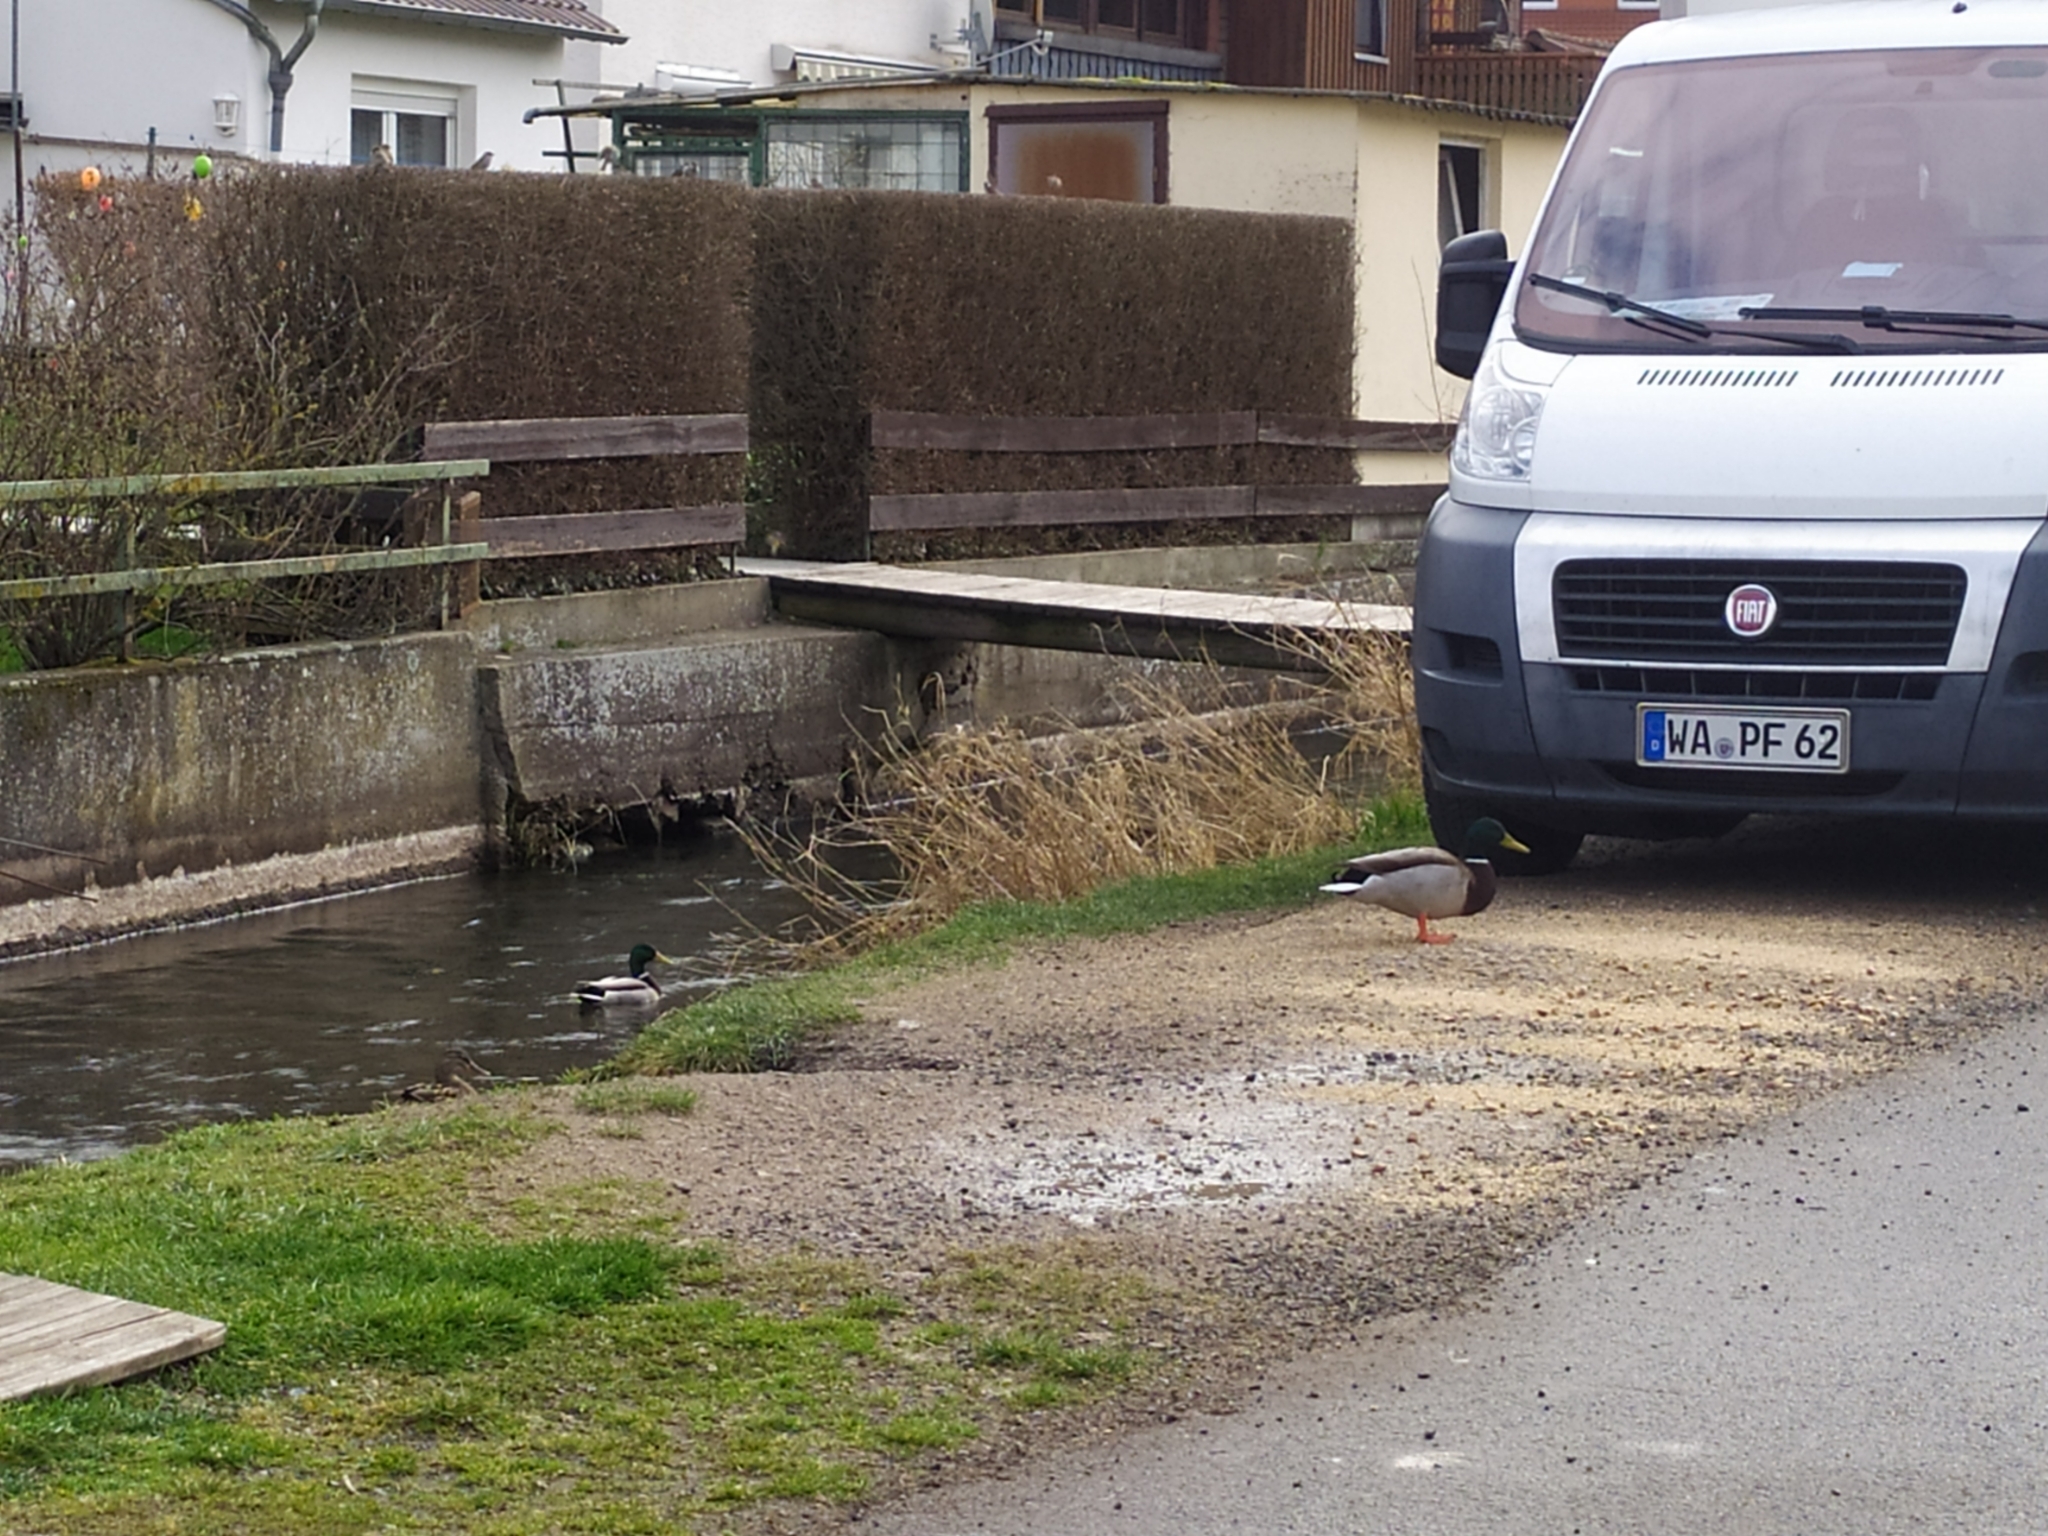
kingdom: Animalia
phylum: Chordata
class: Aves
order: Anseriformes
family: Anatidae
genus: Anas
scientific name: Anas platyrhynchos
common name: Mallard
